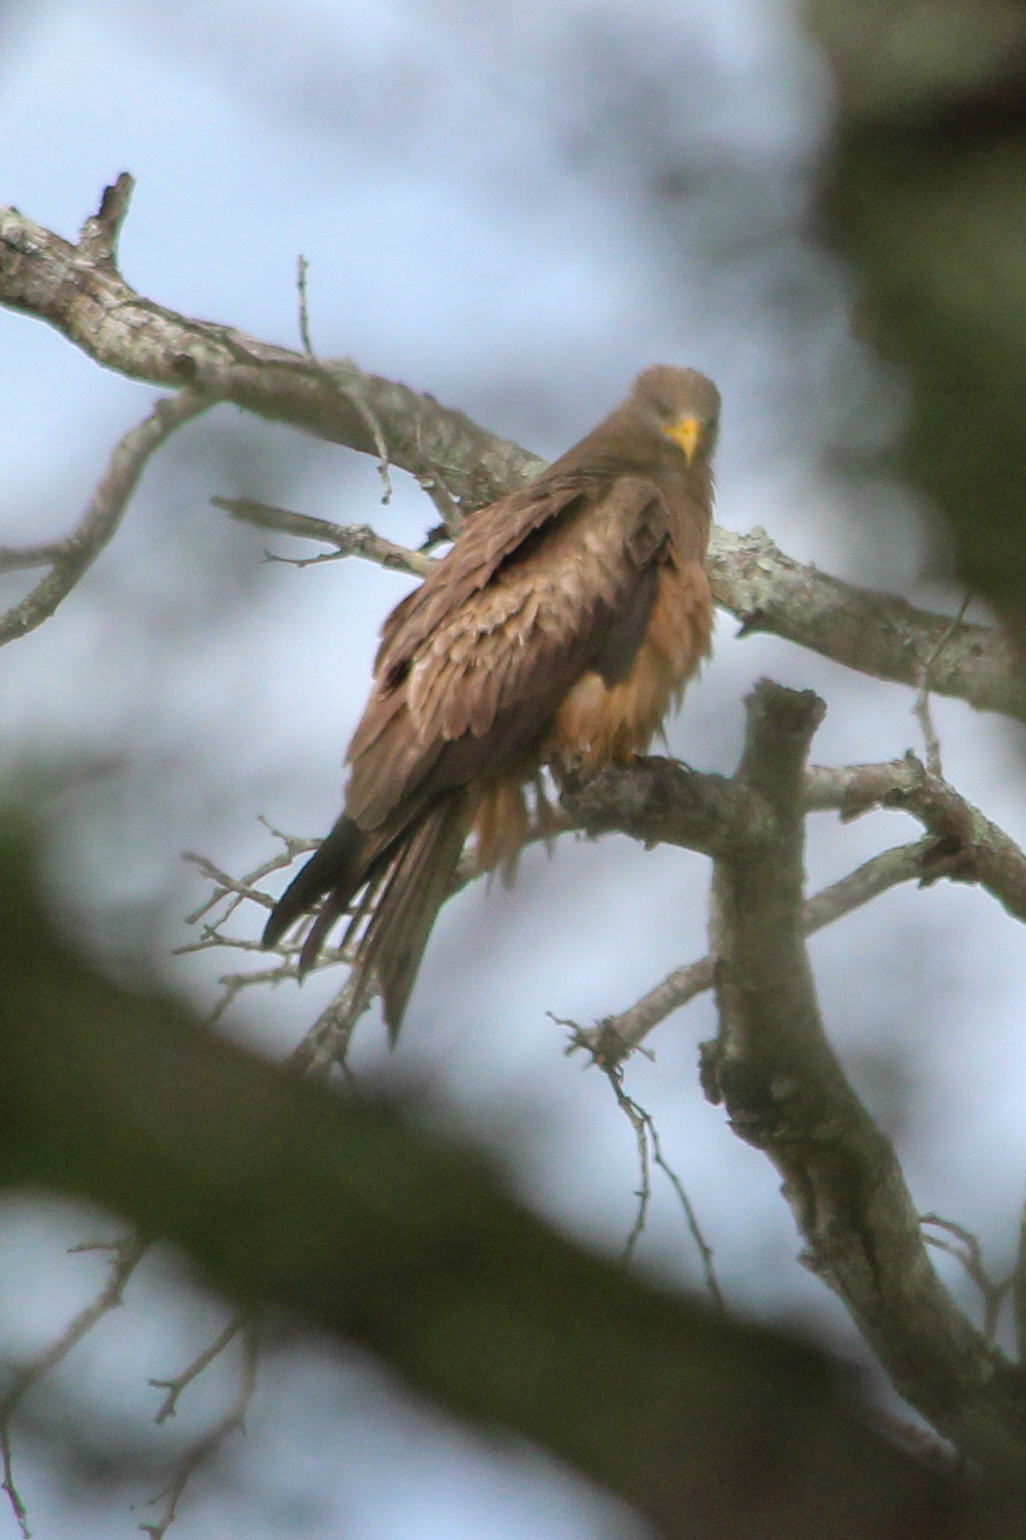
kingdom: Animalia
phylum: Chordata
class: Aves
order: Accipitriformes
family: Accipitridae
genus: Milvus
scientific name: Milvus migrans
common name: Black kite
